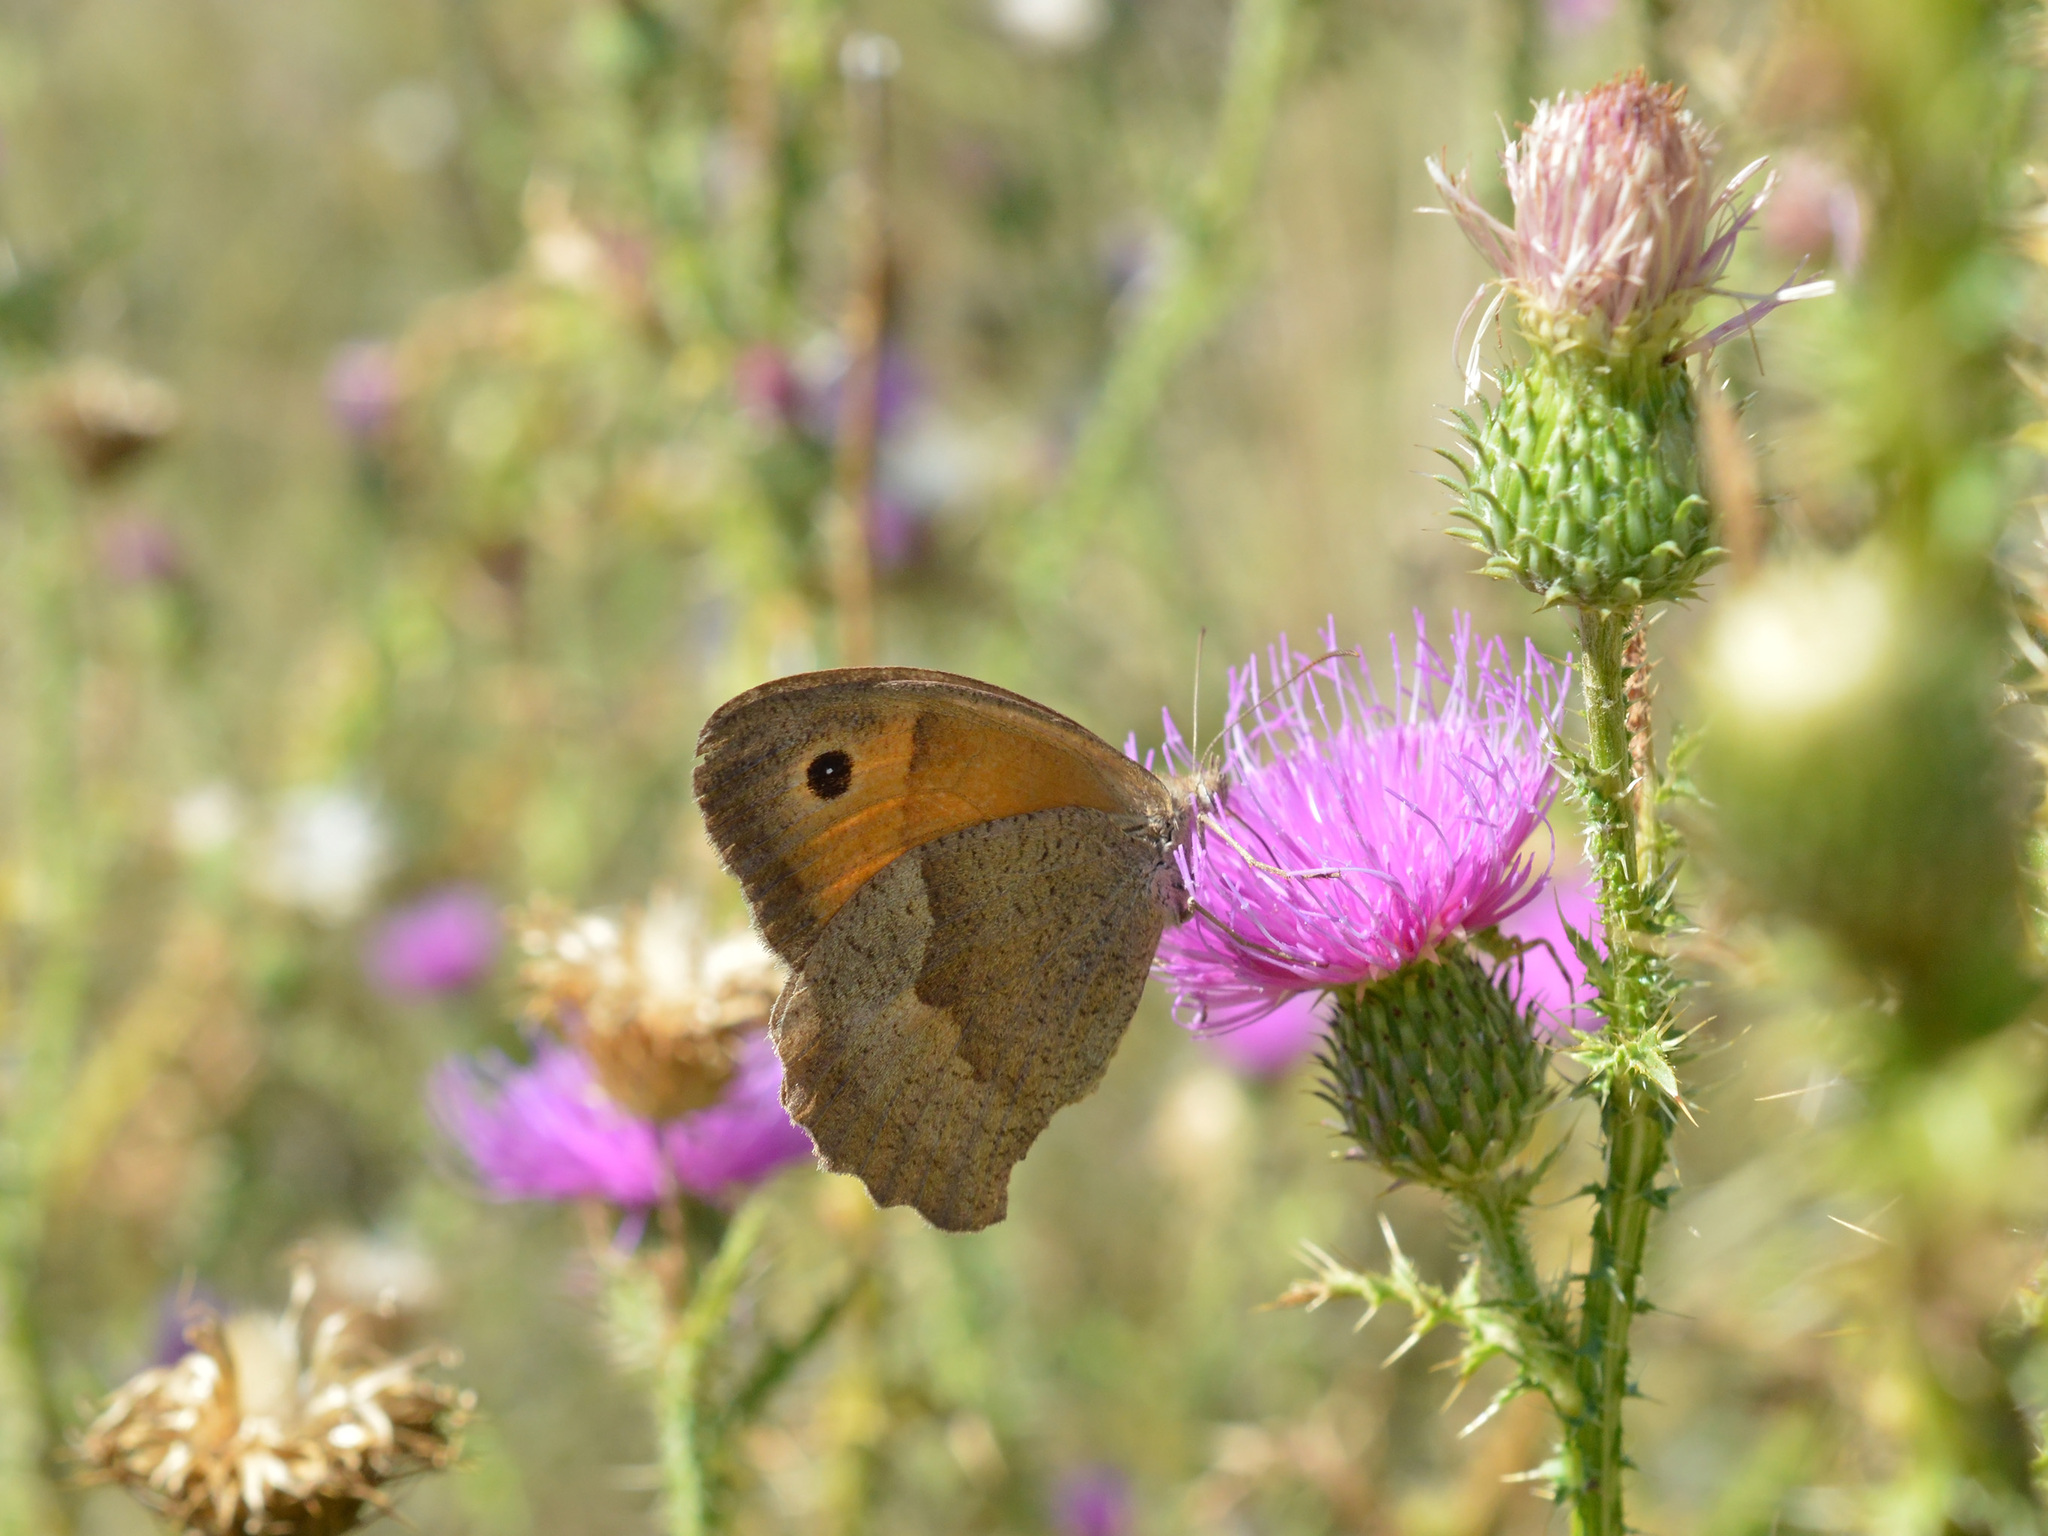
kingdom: Animalia
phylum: Arthropoda
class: Insecta
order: Lepidoptera
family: Nymphalidae
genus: Maniola
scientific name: Maniola jurtina
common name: Meadow brown
